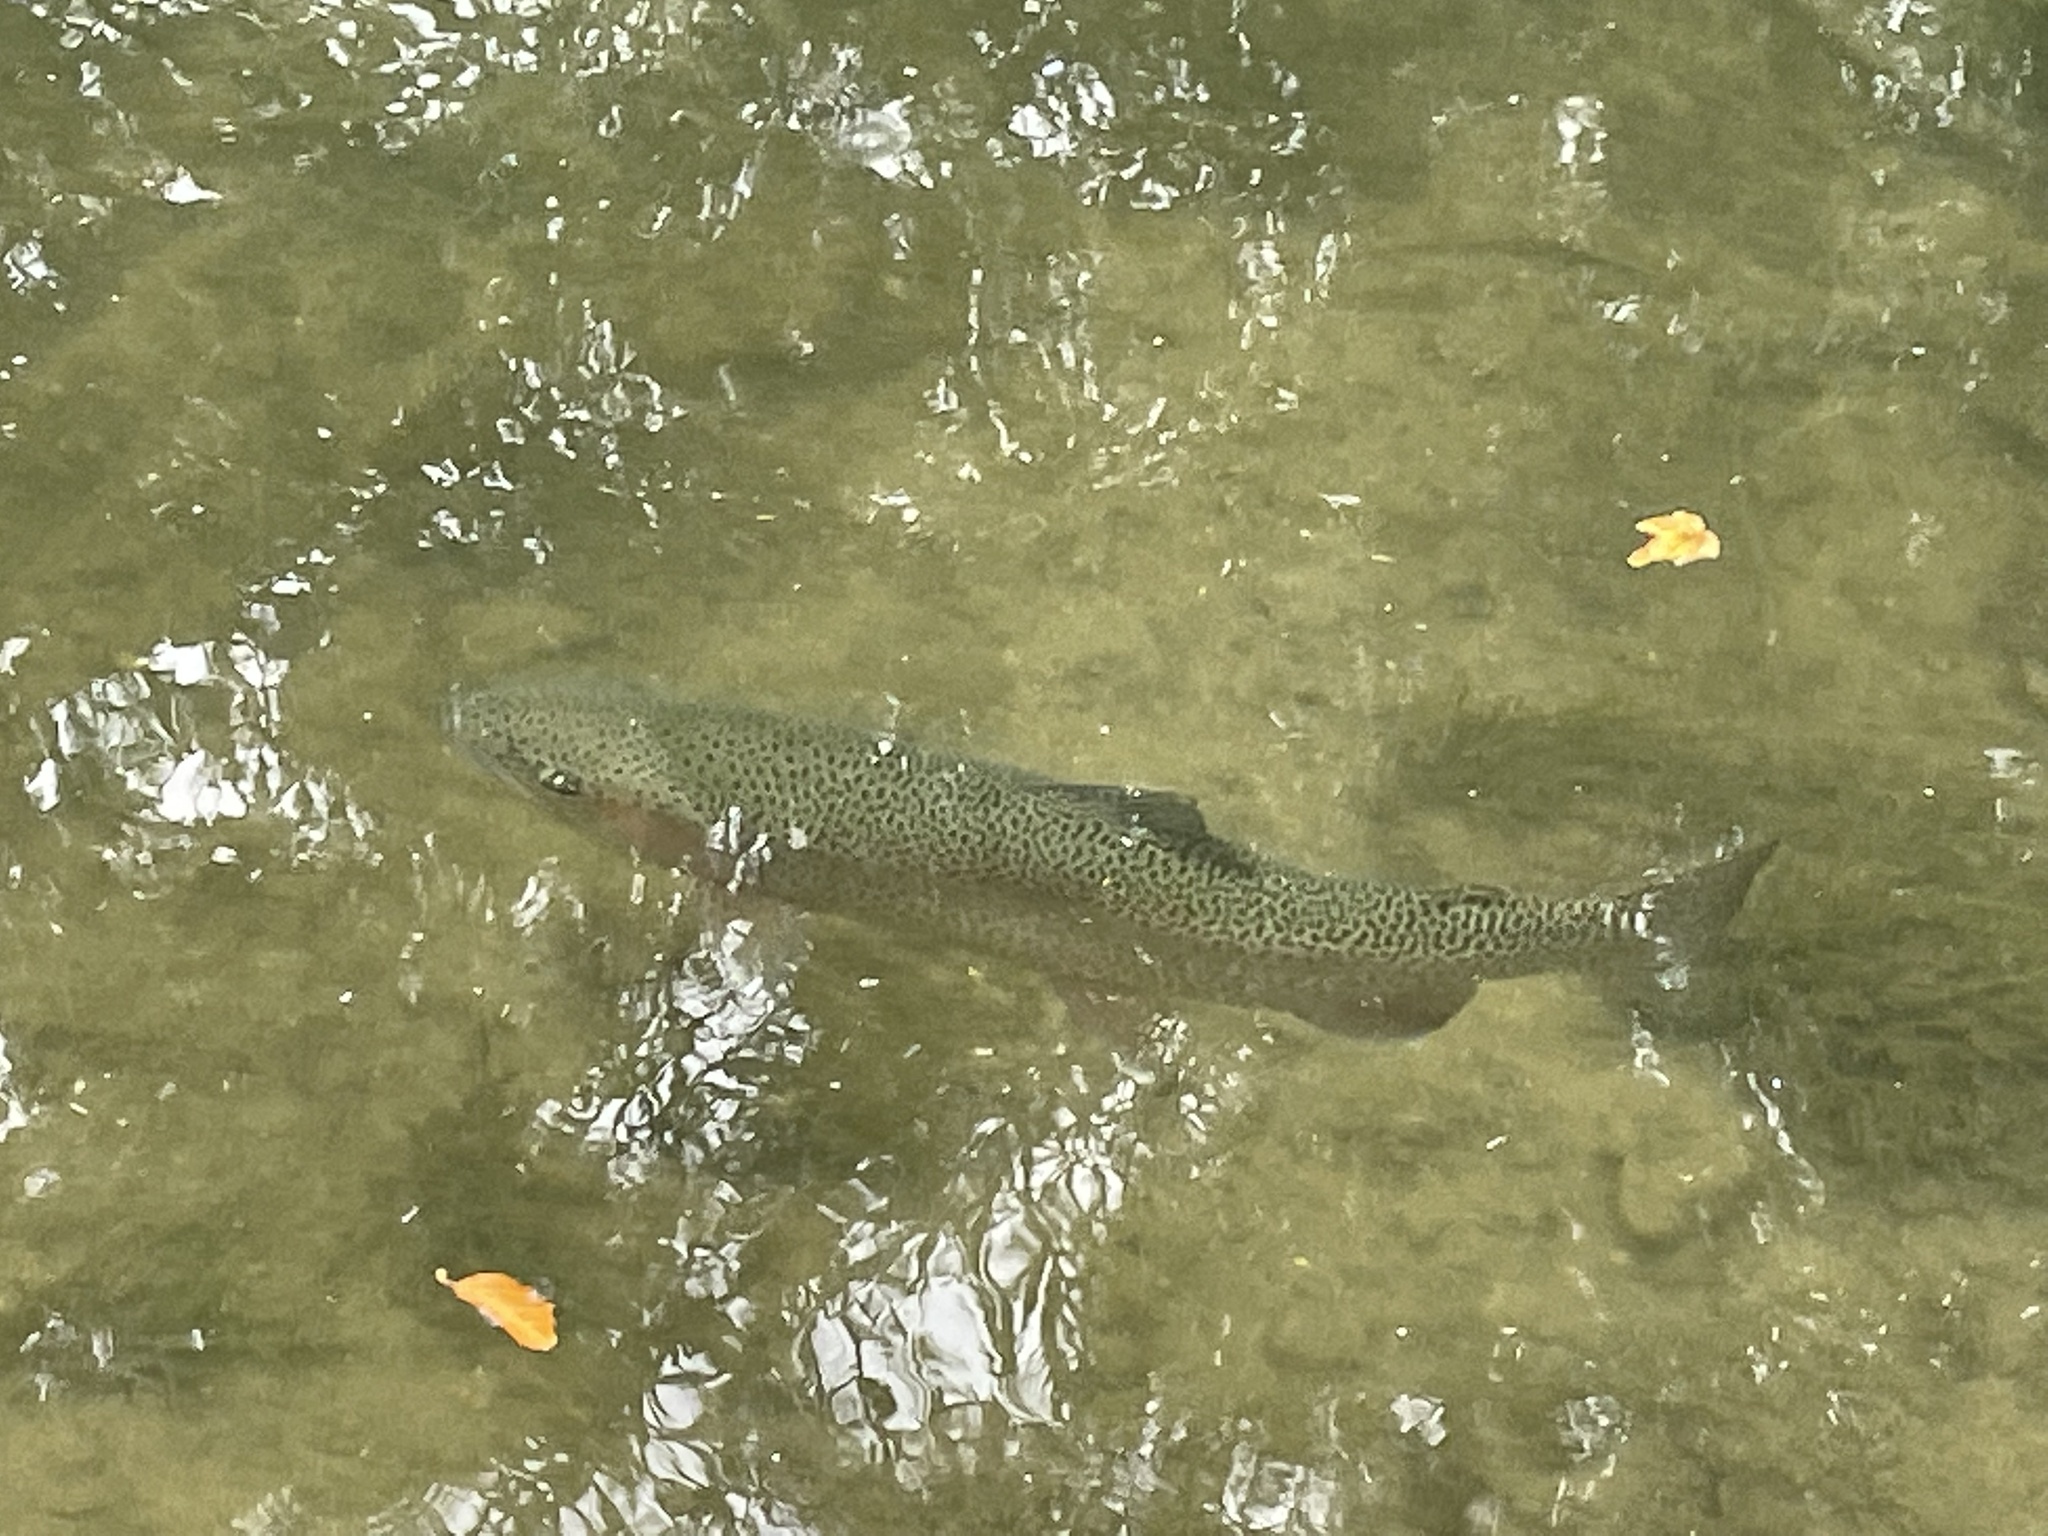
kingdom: Animalia
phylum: Chordata
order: Salmoniformes
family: Salmonidae
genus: Oncorhynchus
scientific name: Oncorhynchus mykiss
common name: Rainbow trout
